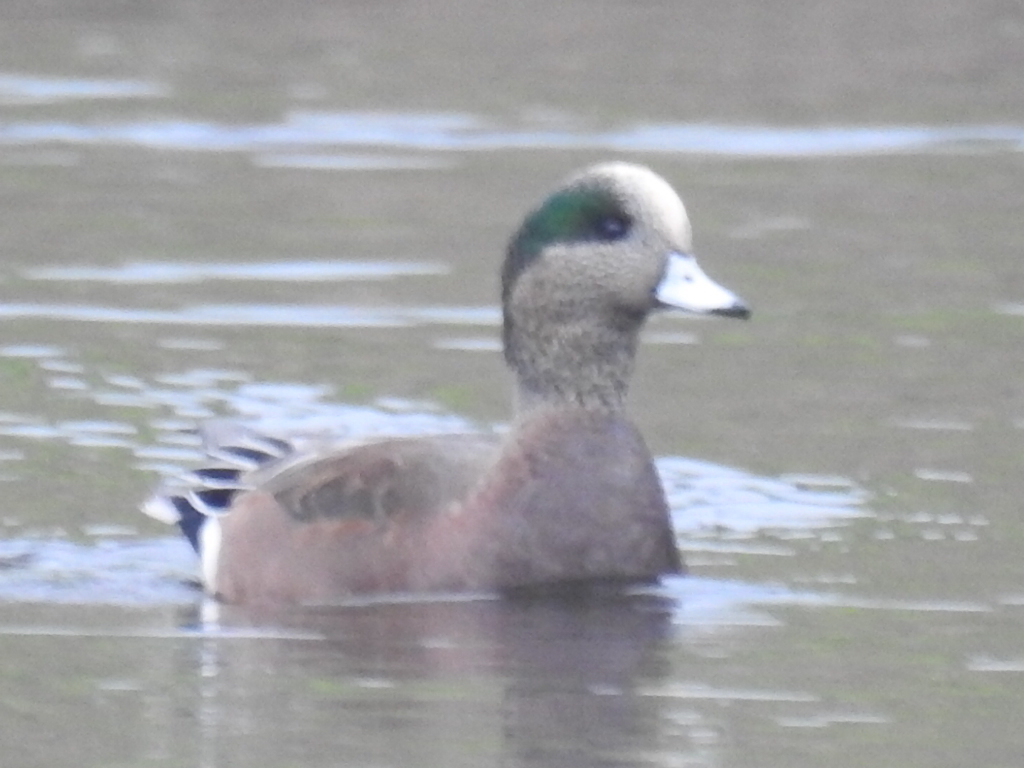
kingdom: Animalia
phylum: Chordata
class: Aves
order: Anseriformes
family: Anatidae
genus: Mareca
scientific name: Mareca americana
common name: American wigeon
